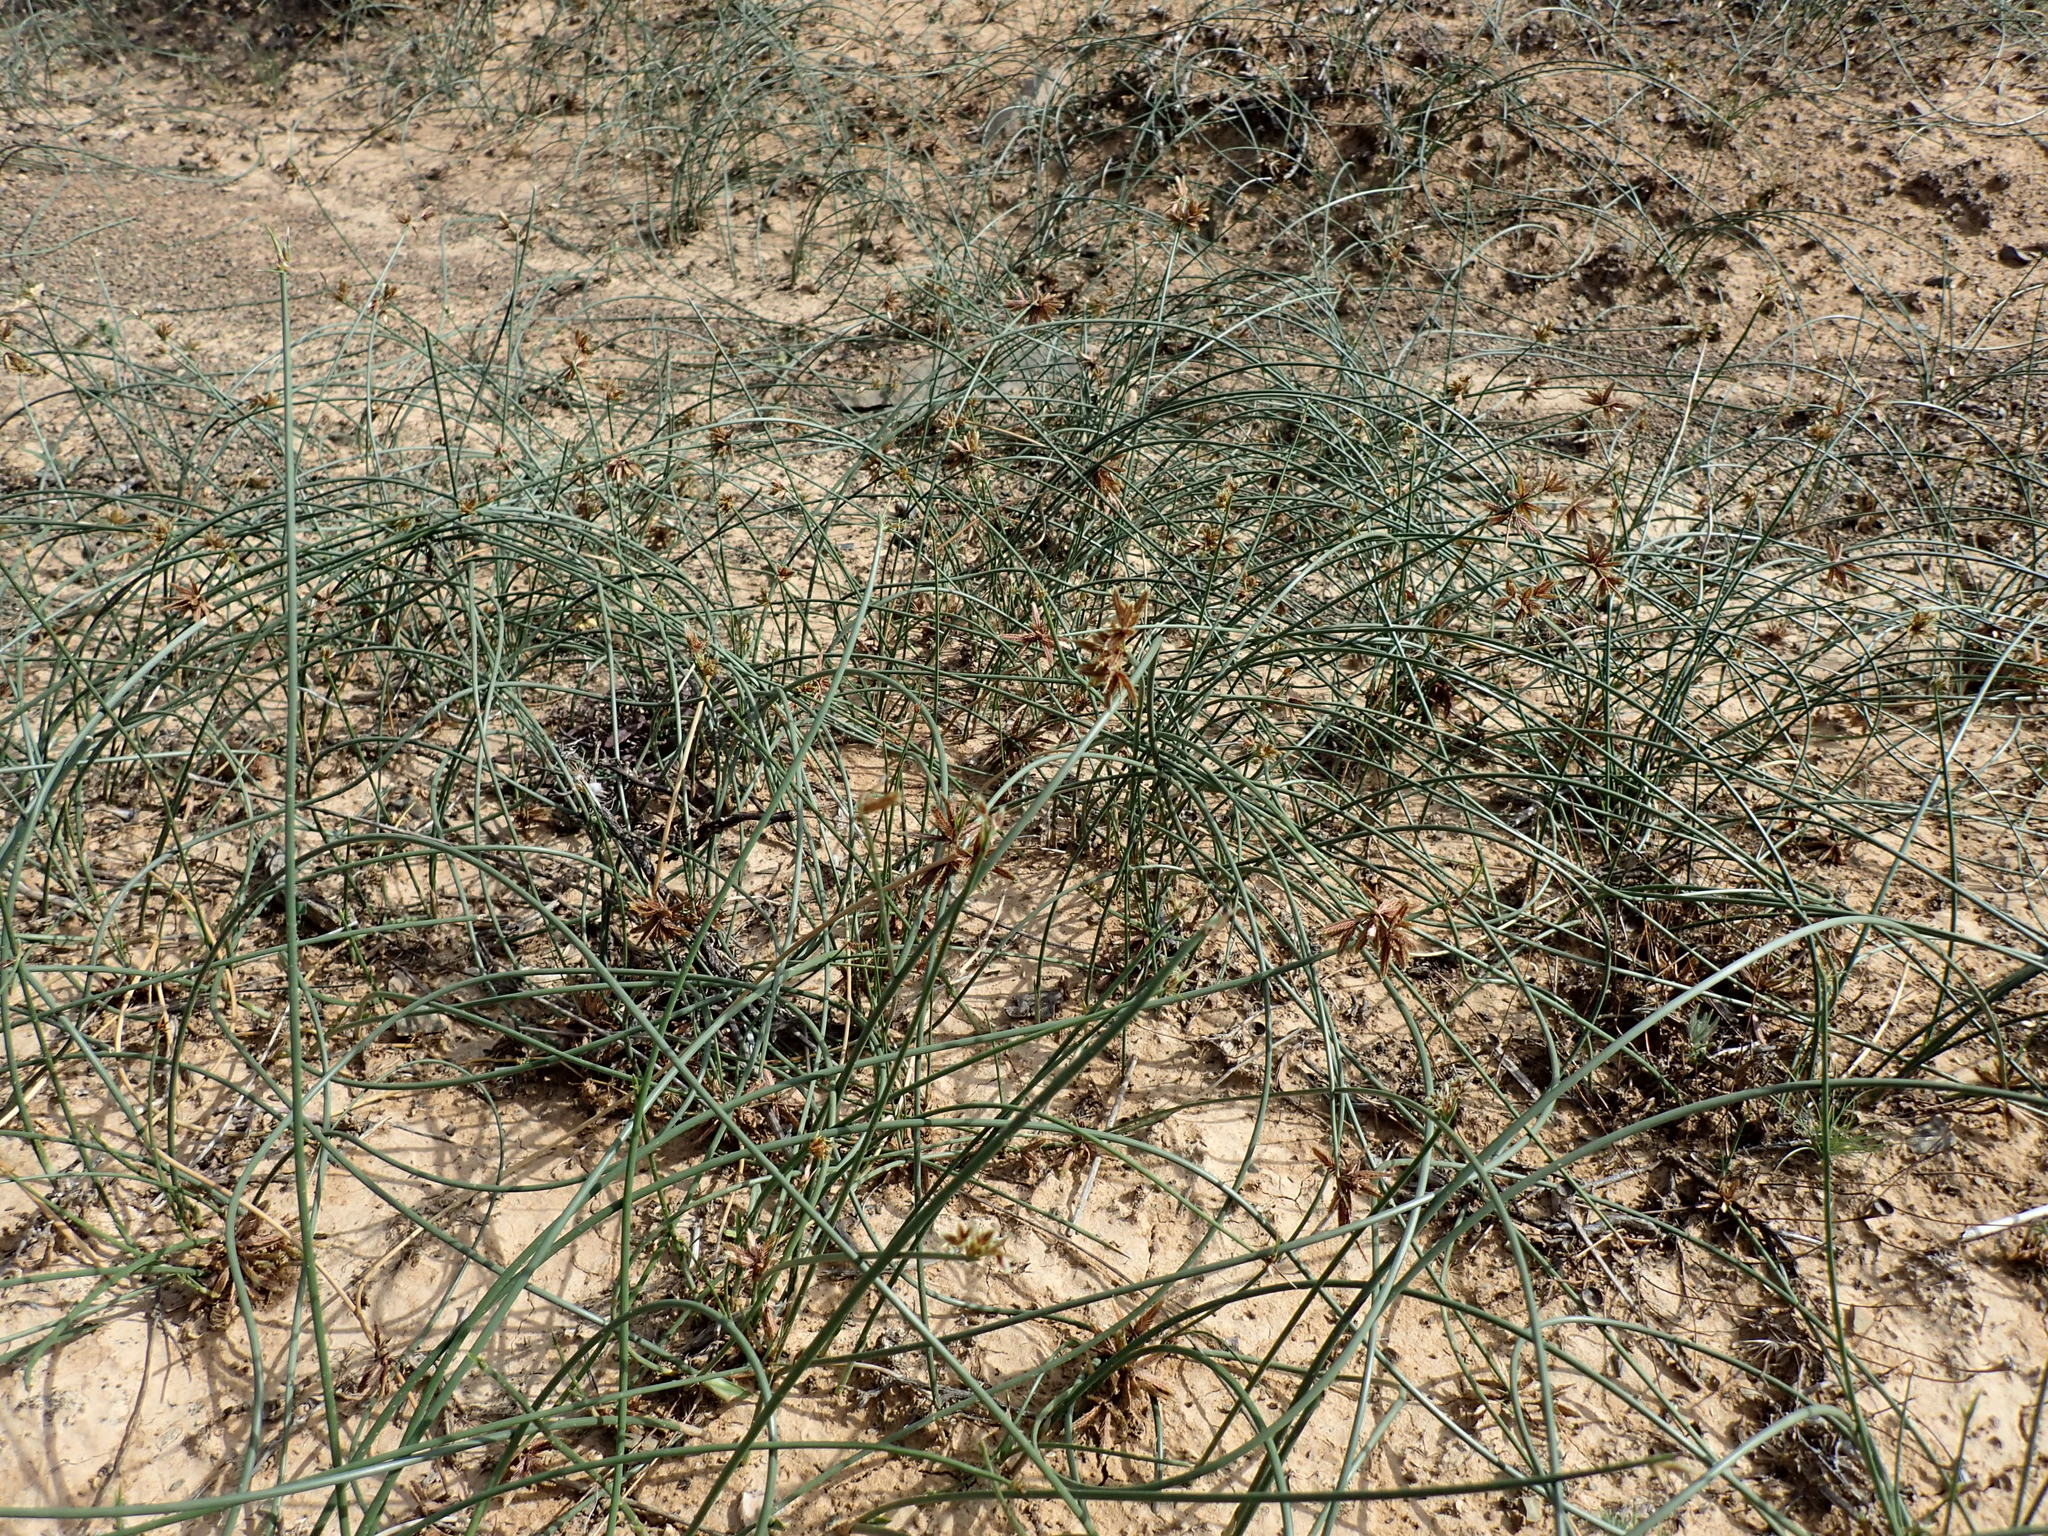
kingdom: Plantae
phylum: Tracheophyta
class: Liliopsida
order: Poales
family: Cyperaceae
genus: Cyperus
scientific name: Cyperus marginatus
